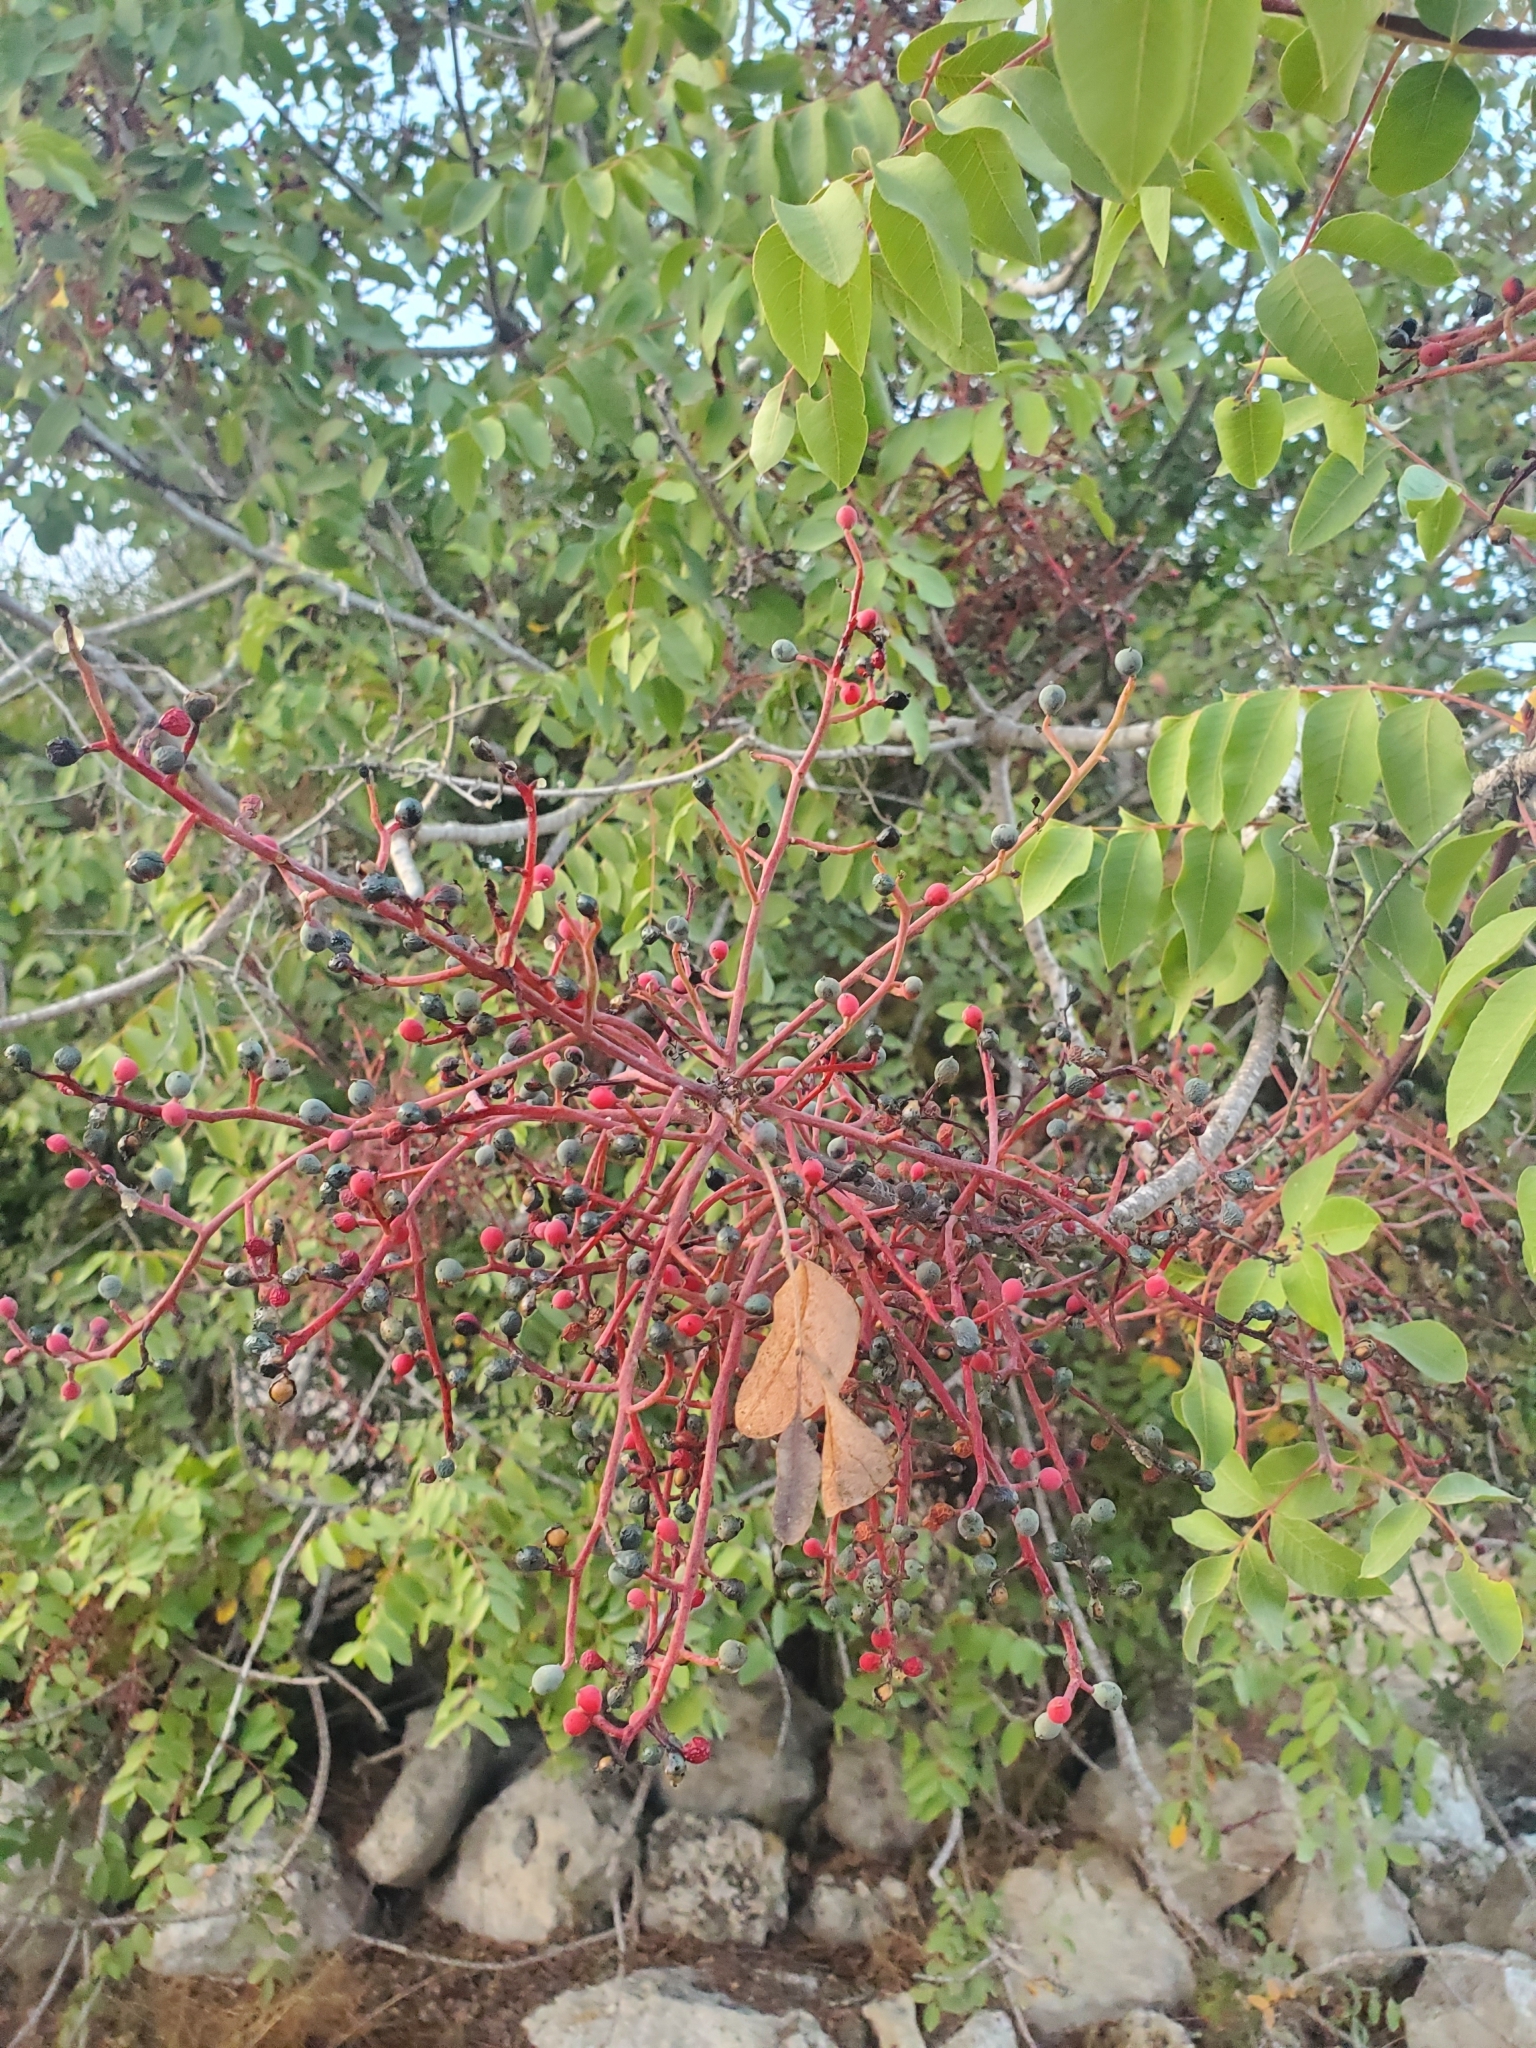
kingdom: Plantae
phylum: Tracheophyta
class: Magnoliopsida
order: Sapindales
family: Anacardiaceae
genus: Pistacia
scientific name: Pistacia terebinthus
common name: Terebinth
